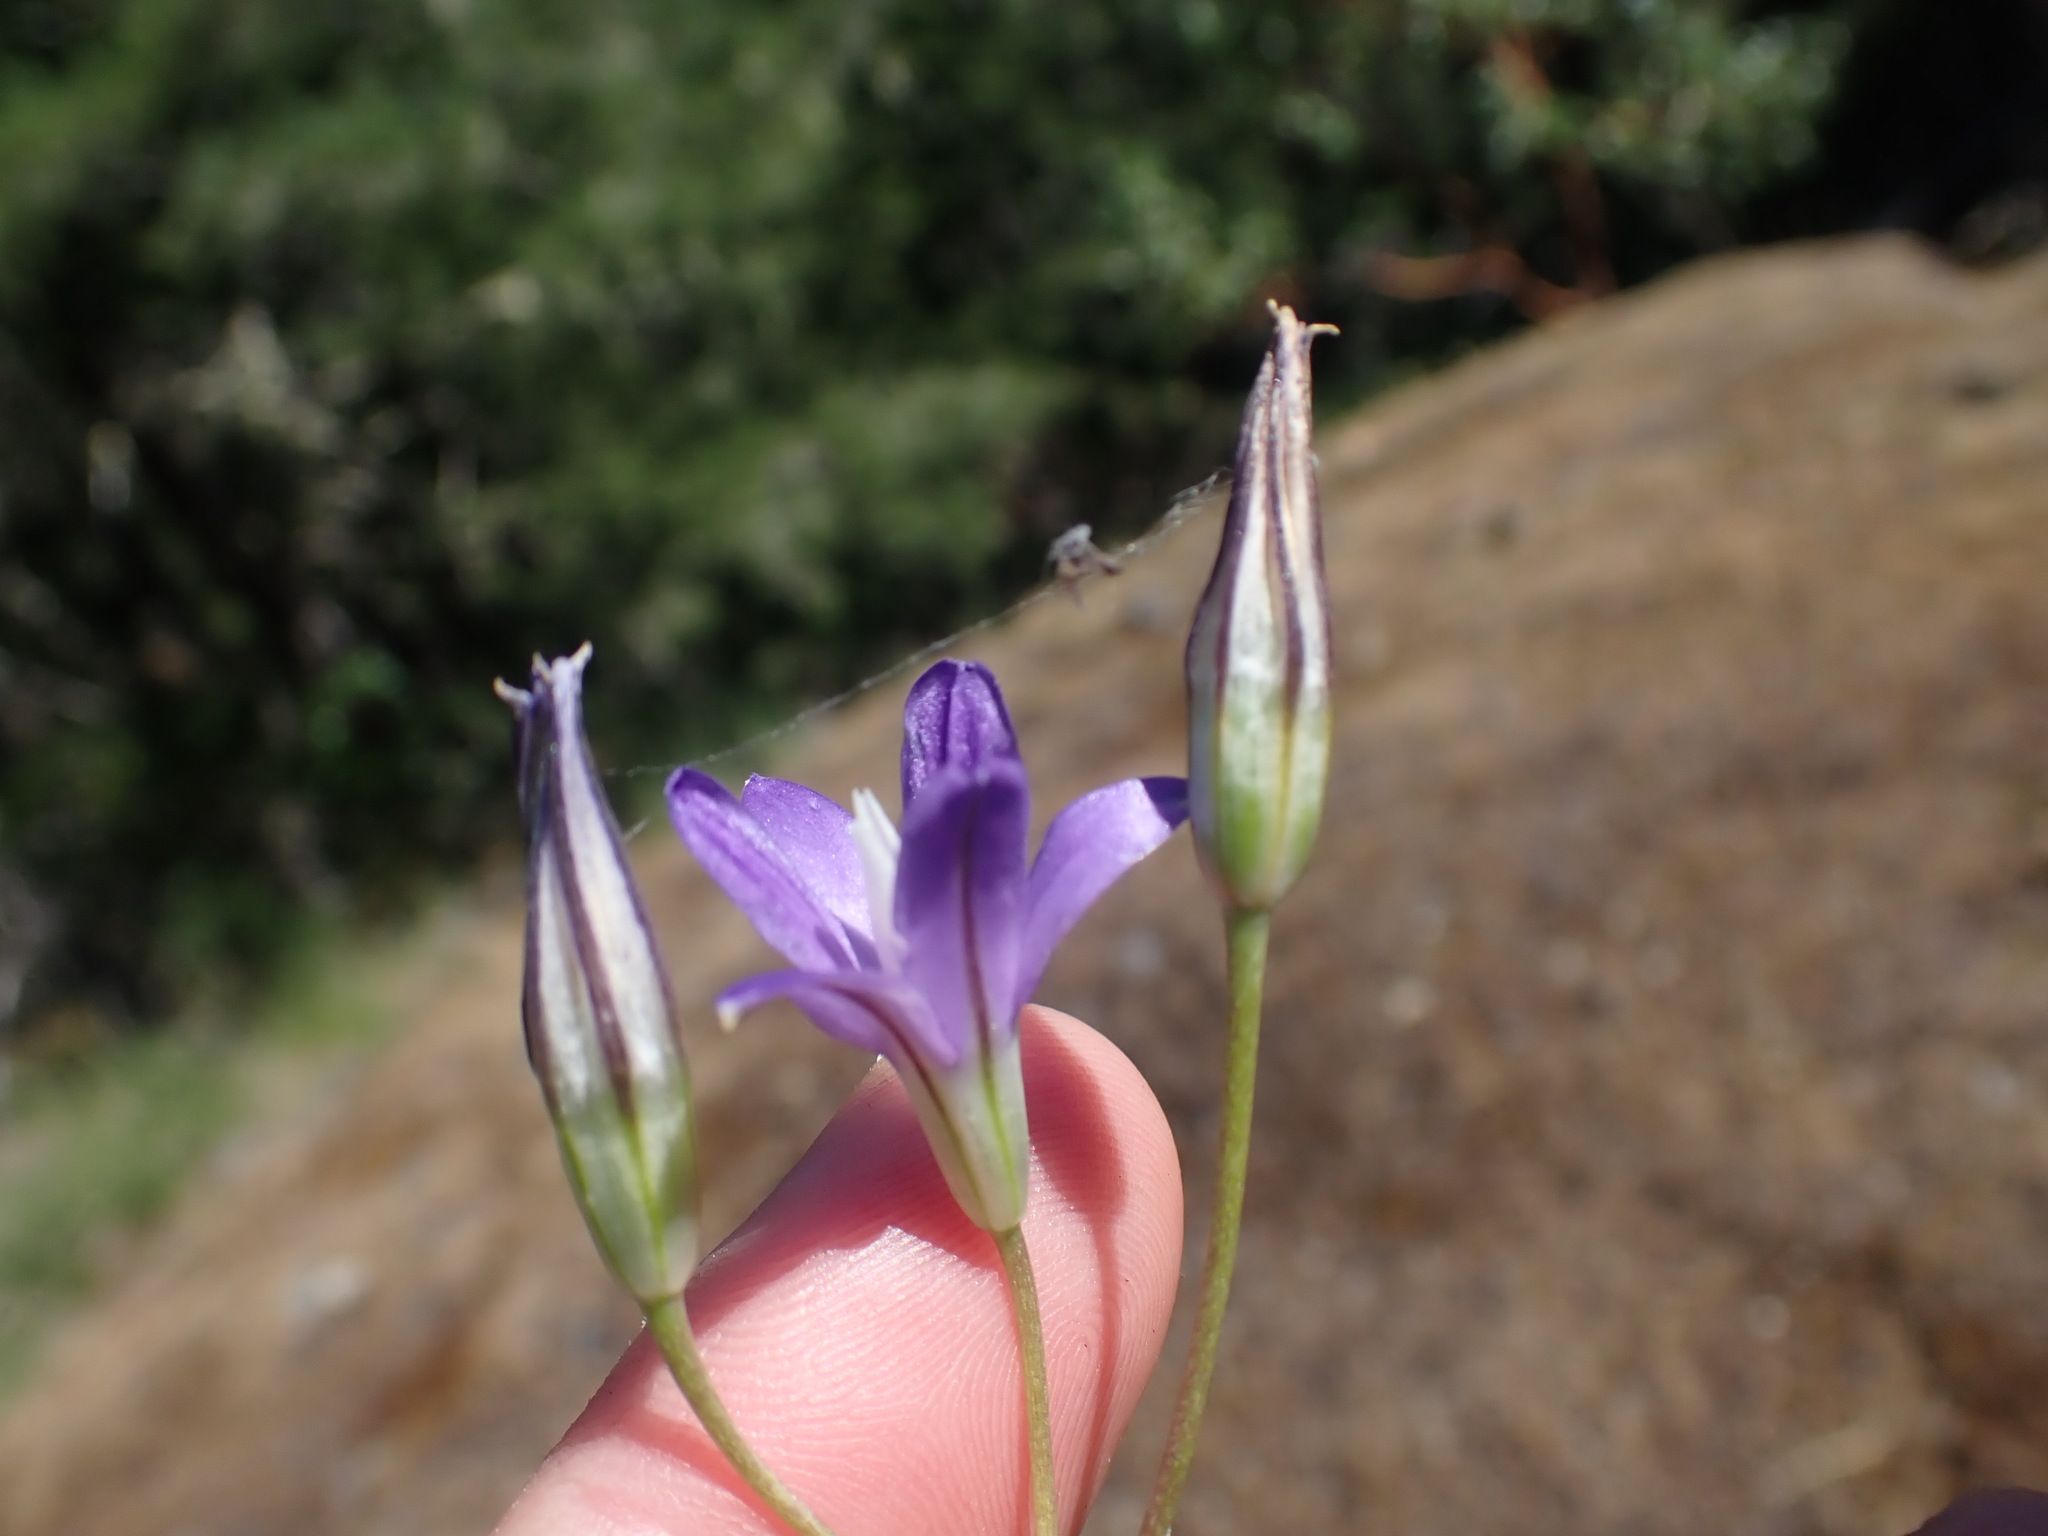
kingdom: Plantae
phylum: Tracheophyta
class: Liliopsida
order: Asparagales
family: Asparagaceae
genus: Brodiaea
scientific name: Brodiaea coronaria
